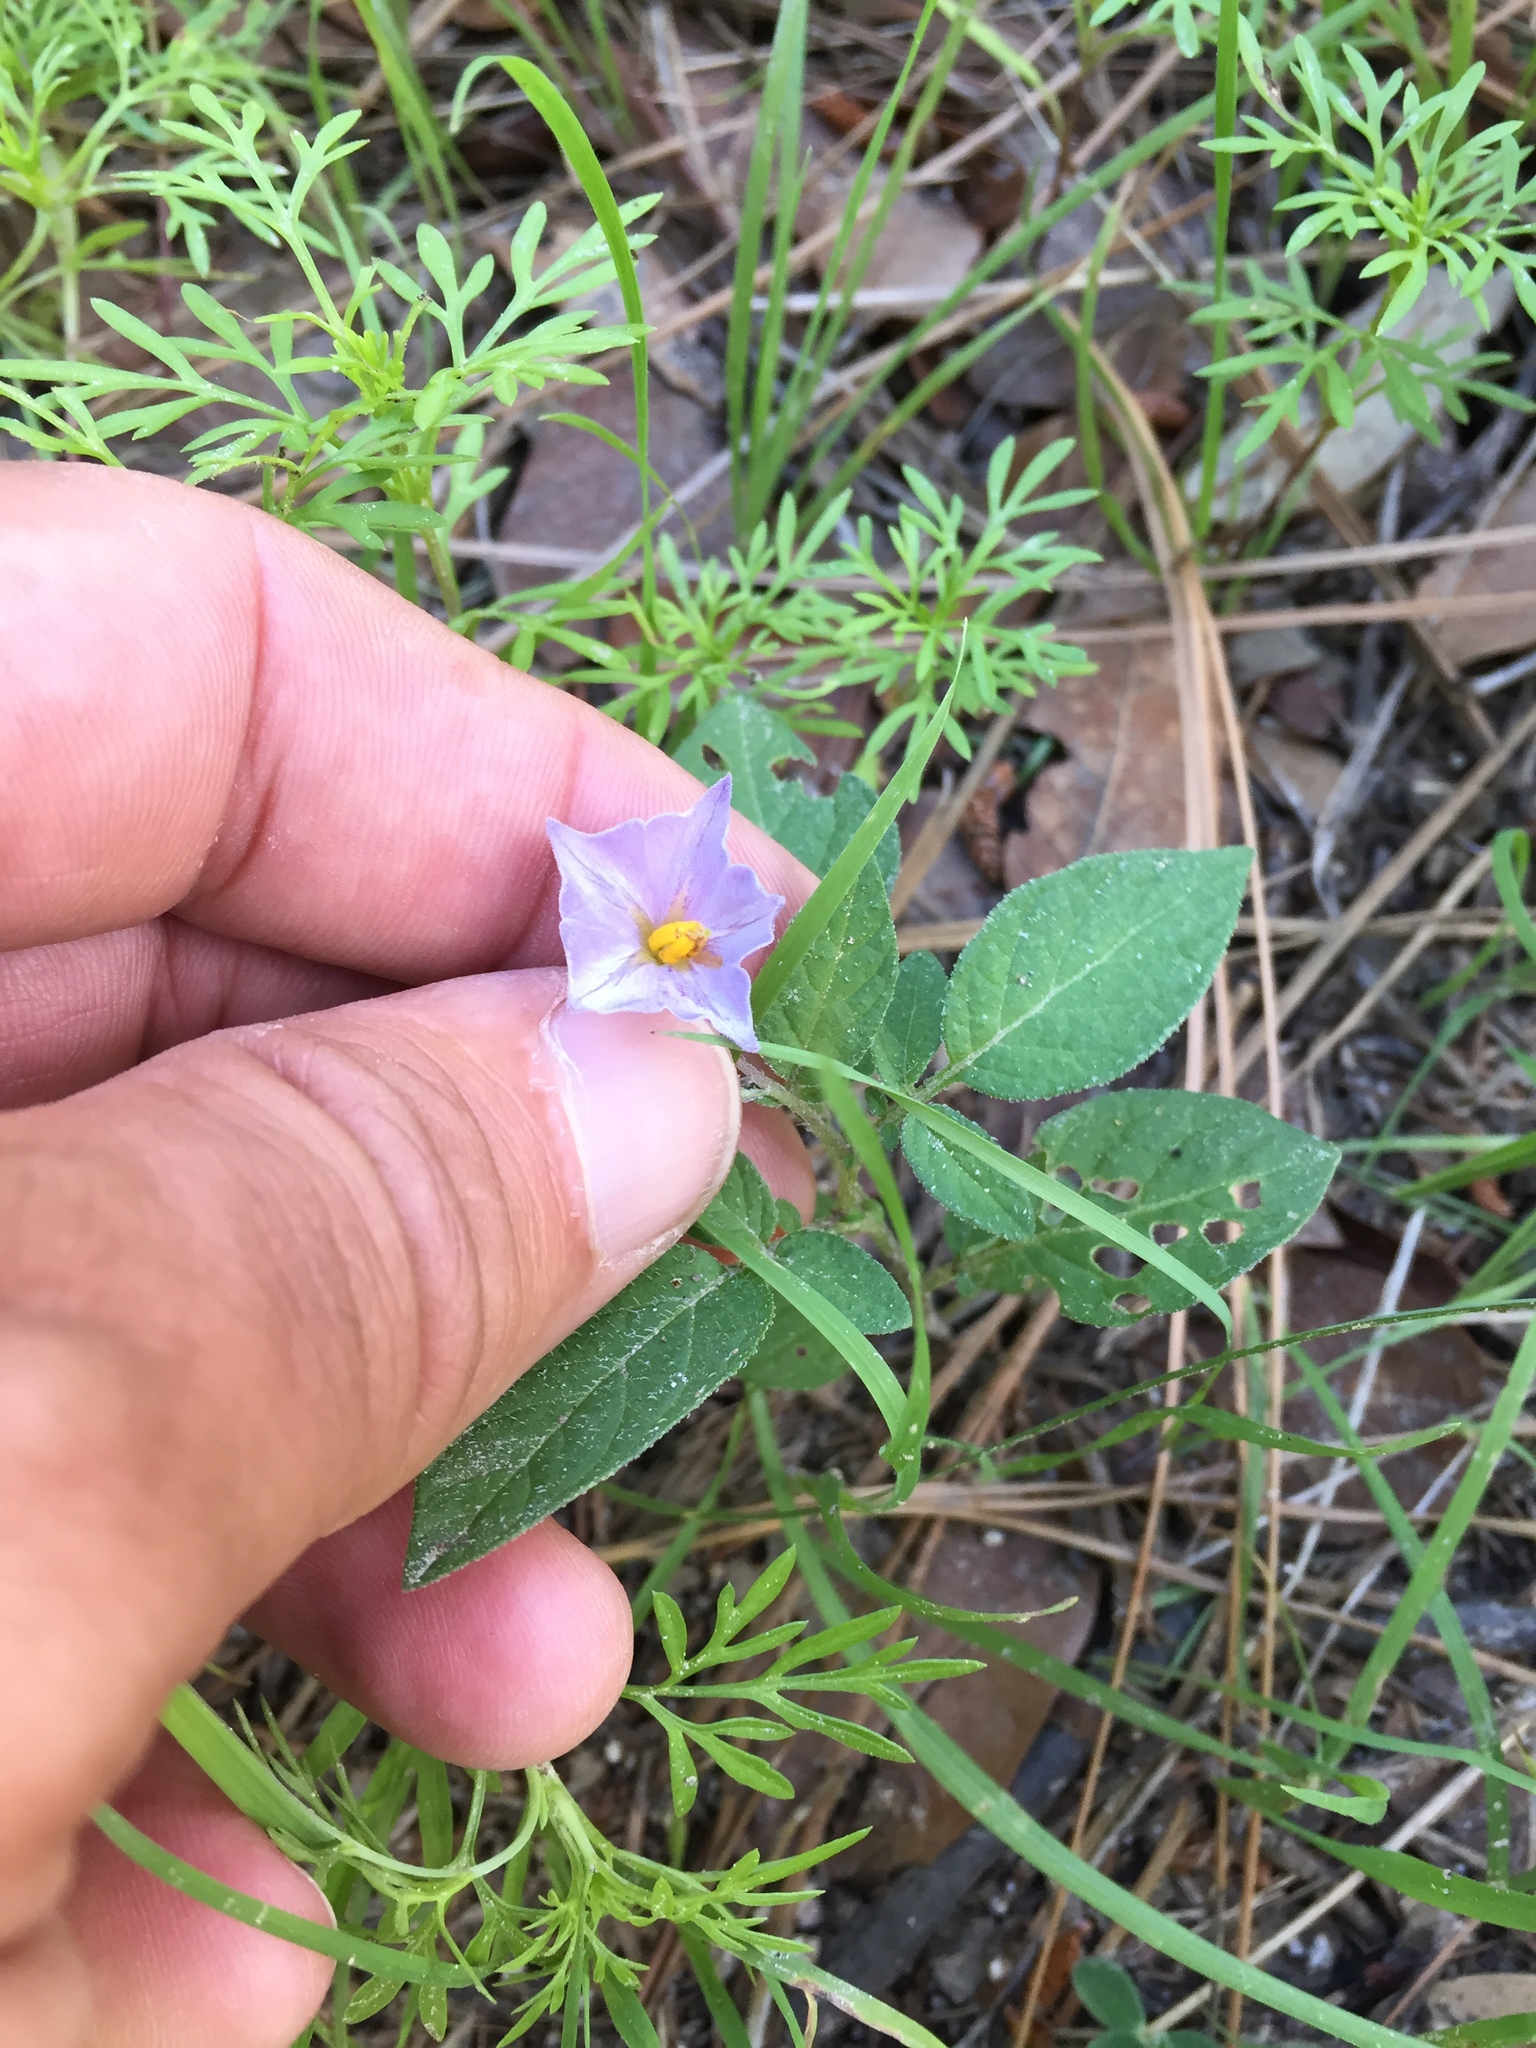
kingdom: Plantae
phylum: Tracheophyta
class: Magnoliopsida
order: Solanales
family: Solanaceae
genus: Solanum
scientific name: Solanum stoloniferum
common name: Fendler's nighshade
